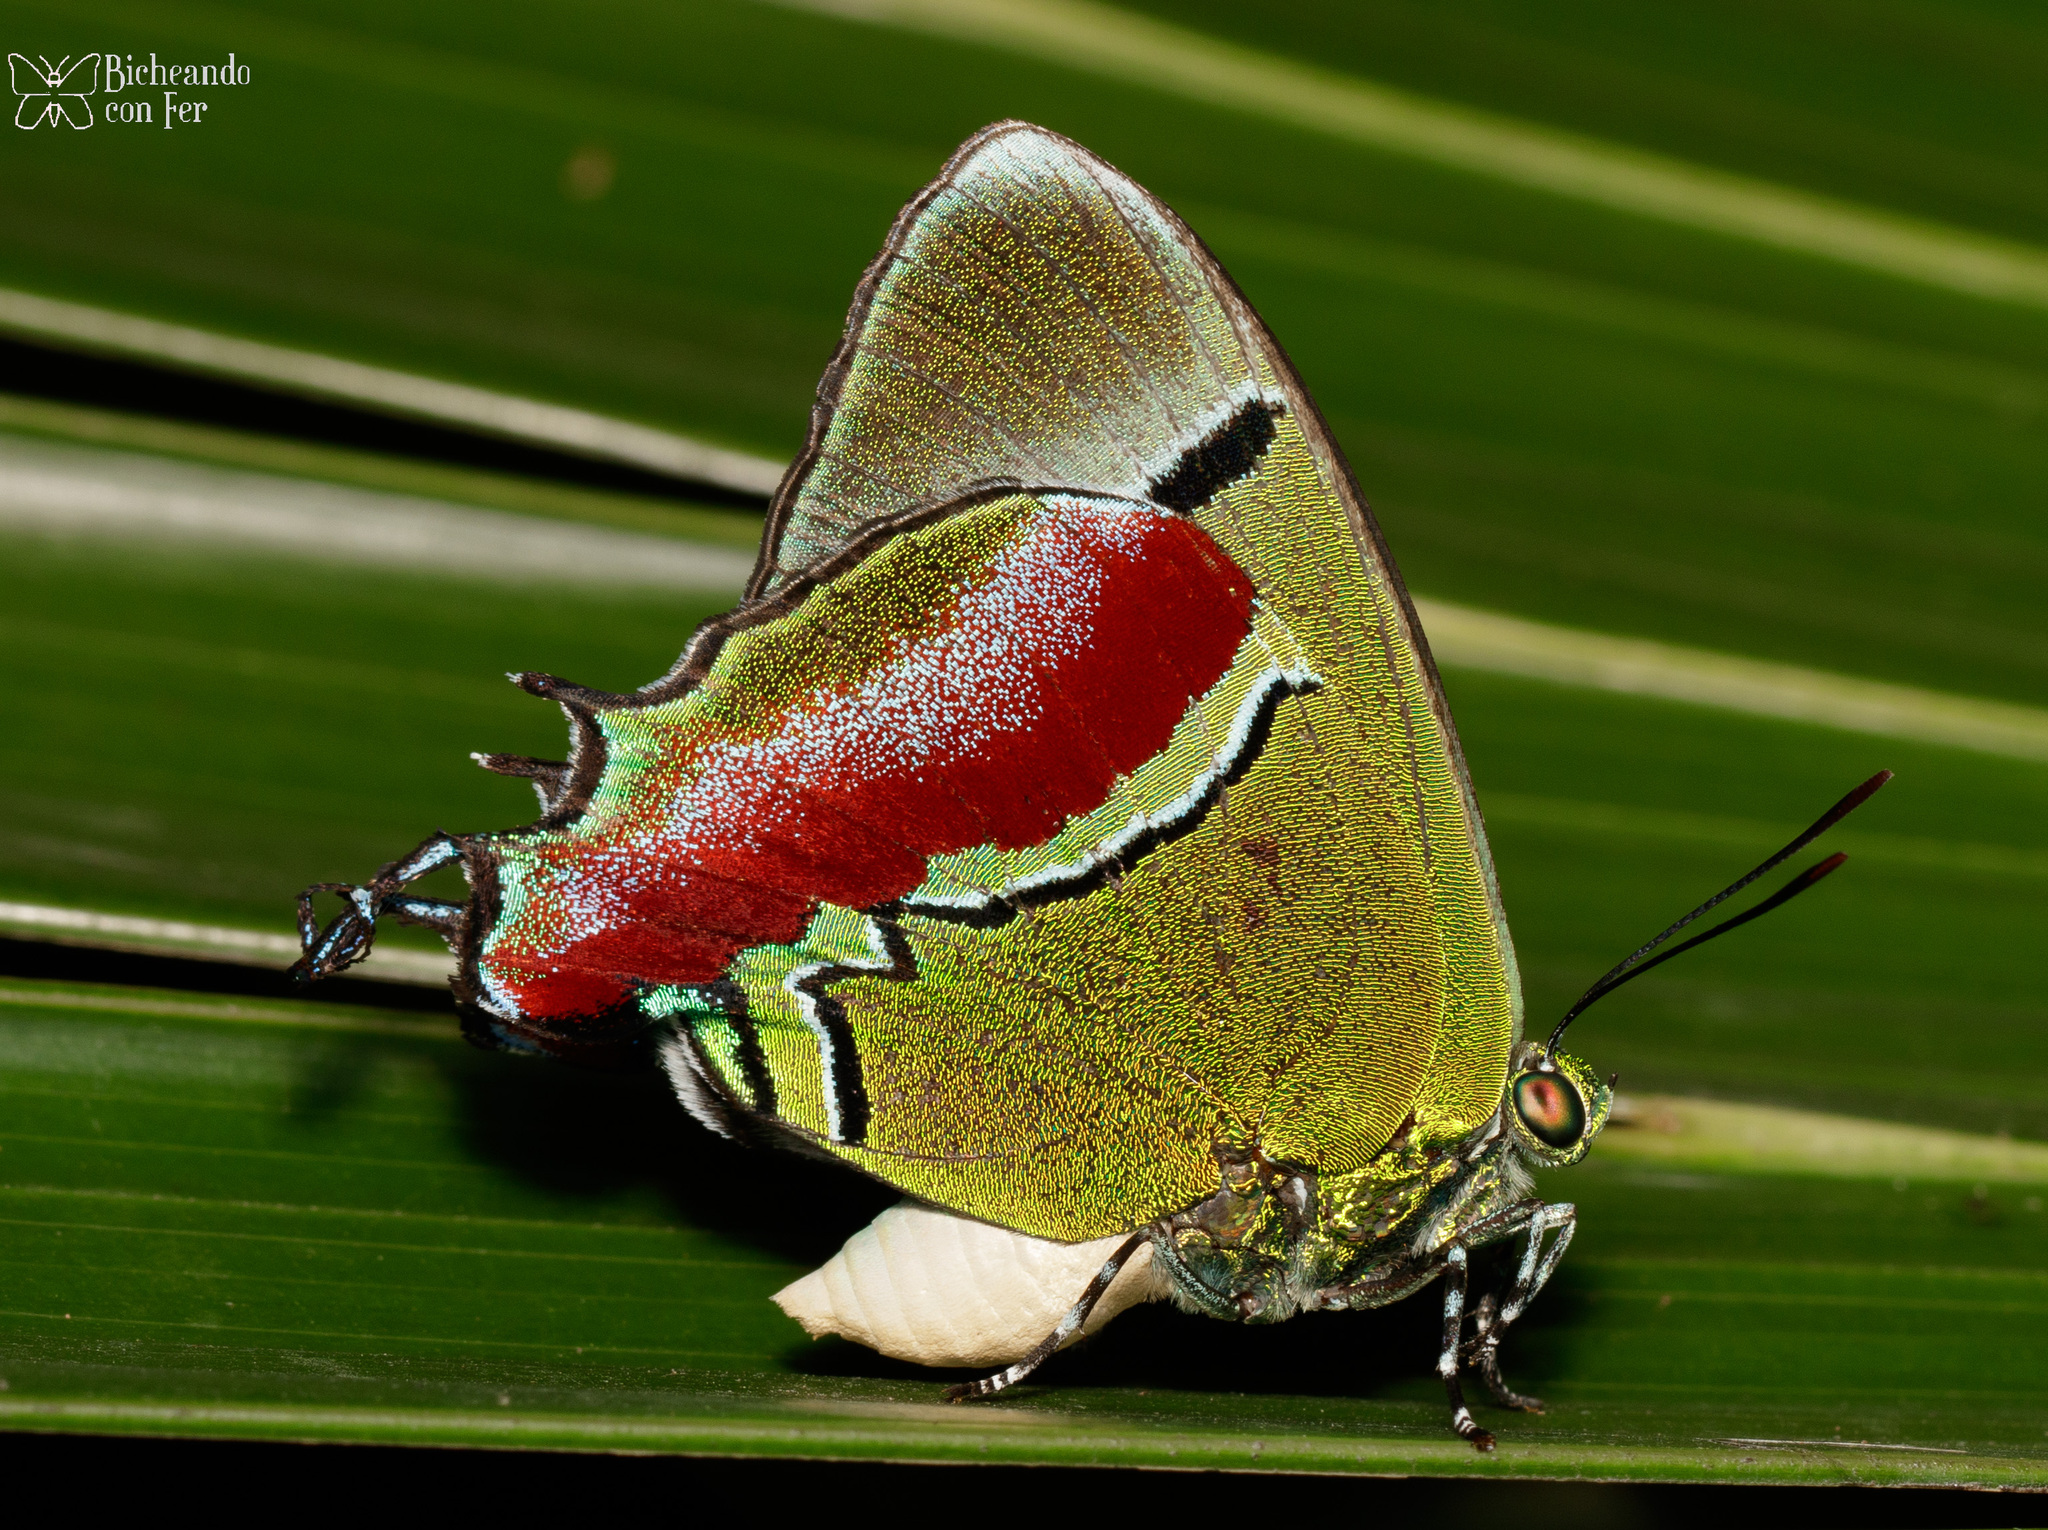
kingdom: Animalia
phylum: Arthropoda
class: Insecta
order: Lepidoptera
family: Lycaenidae
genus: Evenus
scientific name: Evenus regalis
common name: Regal hairstreak
